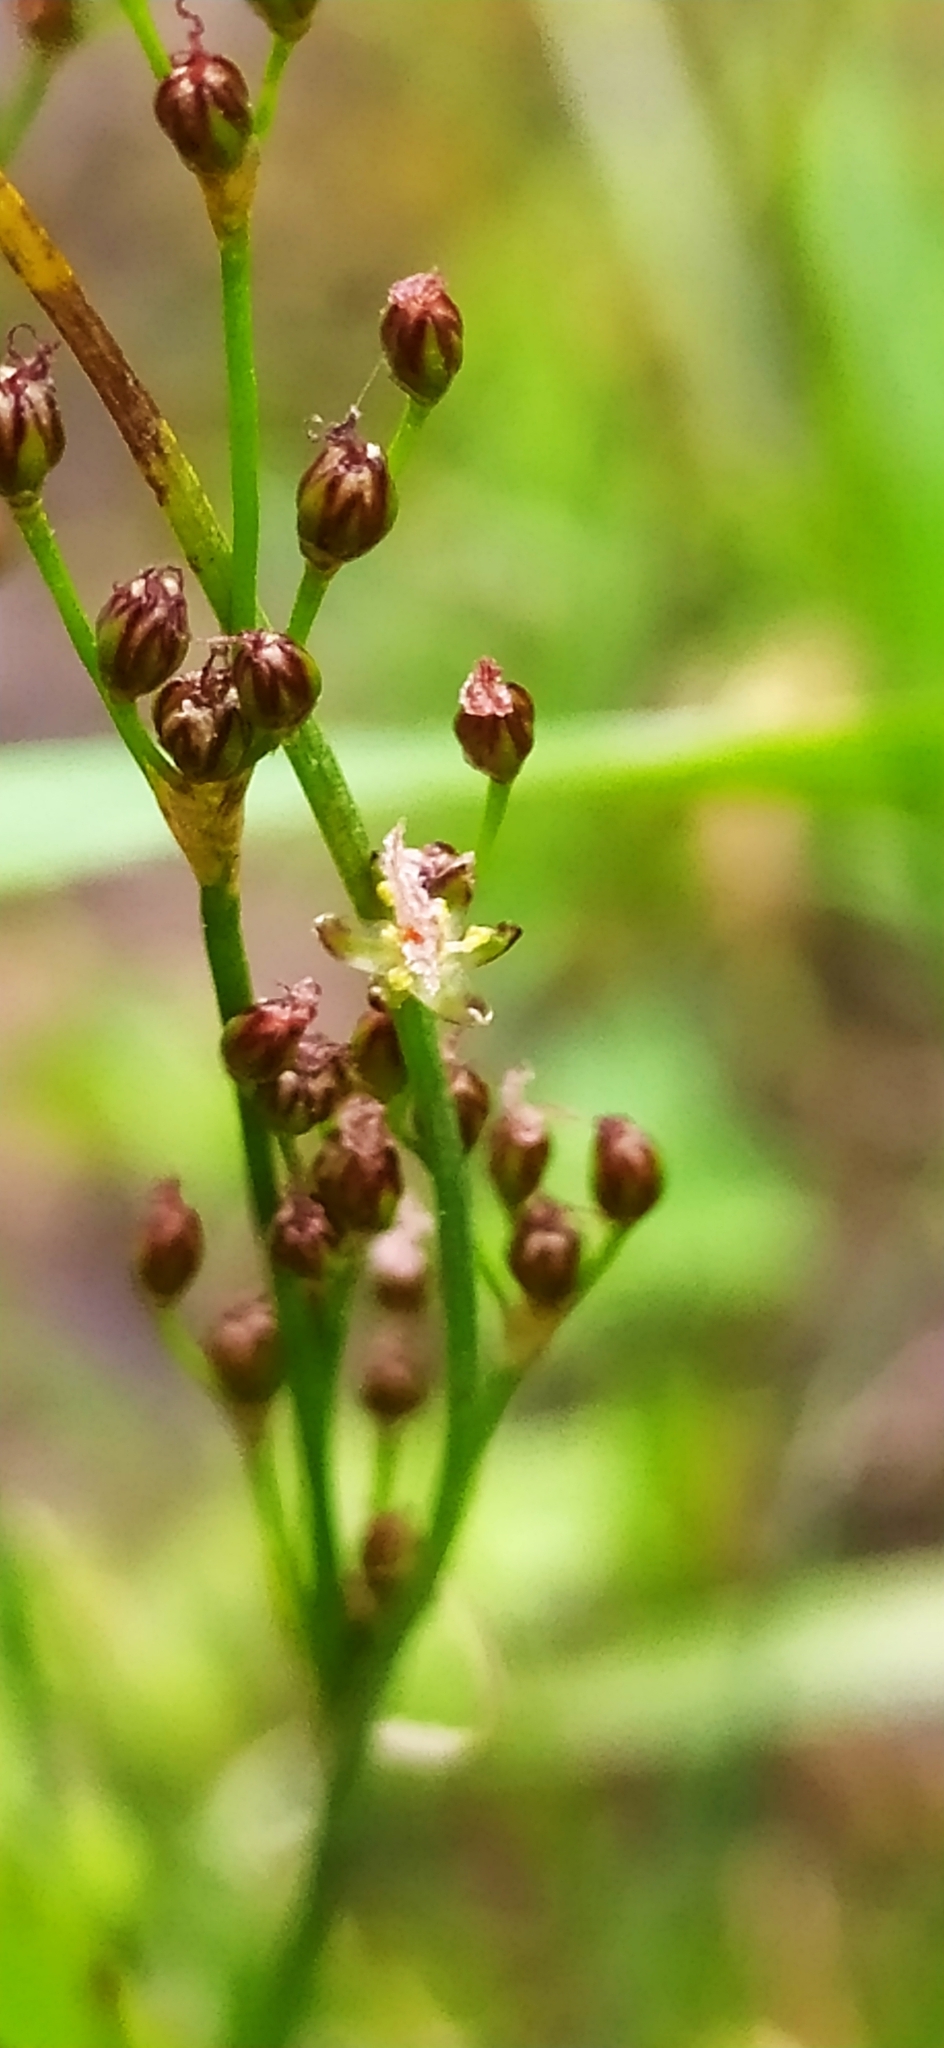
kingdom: Plantae
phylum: Tracheophyta
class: Liliopsida
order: Poales
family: Juncaceae
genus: Juncus
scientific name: Juncus compressus
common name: Round-fruited rush
